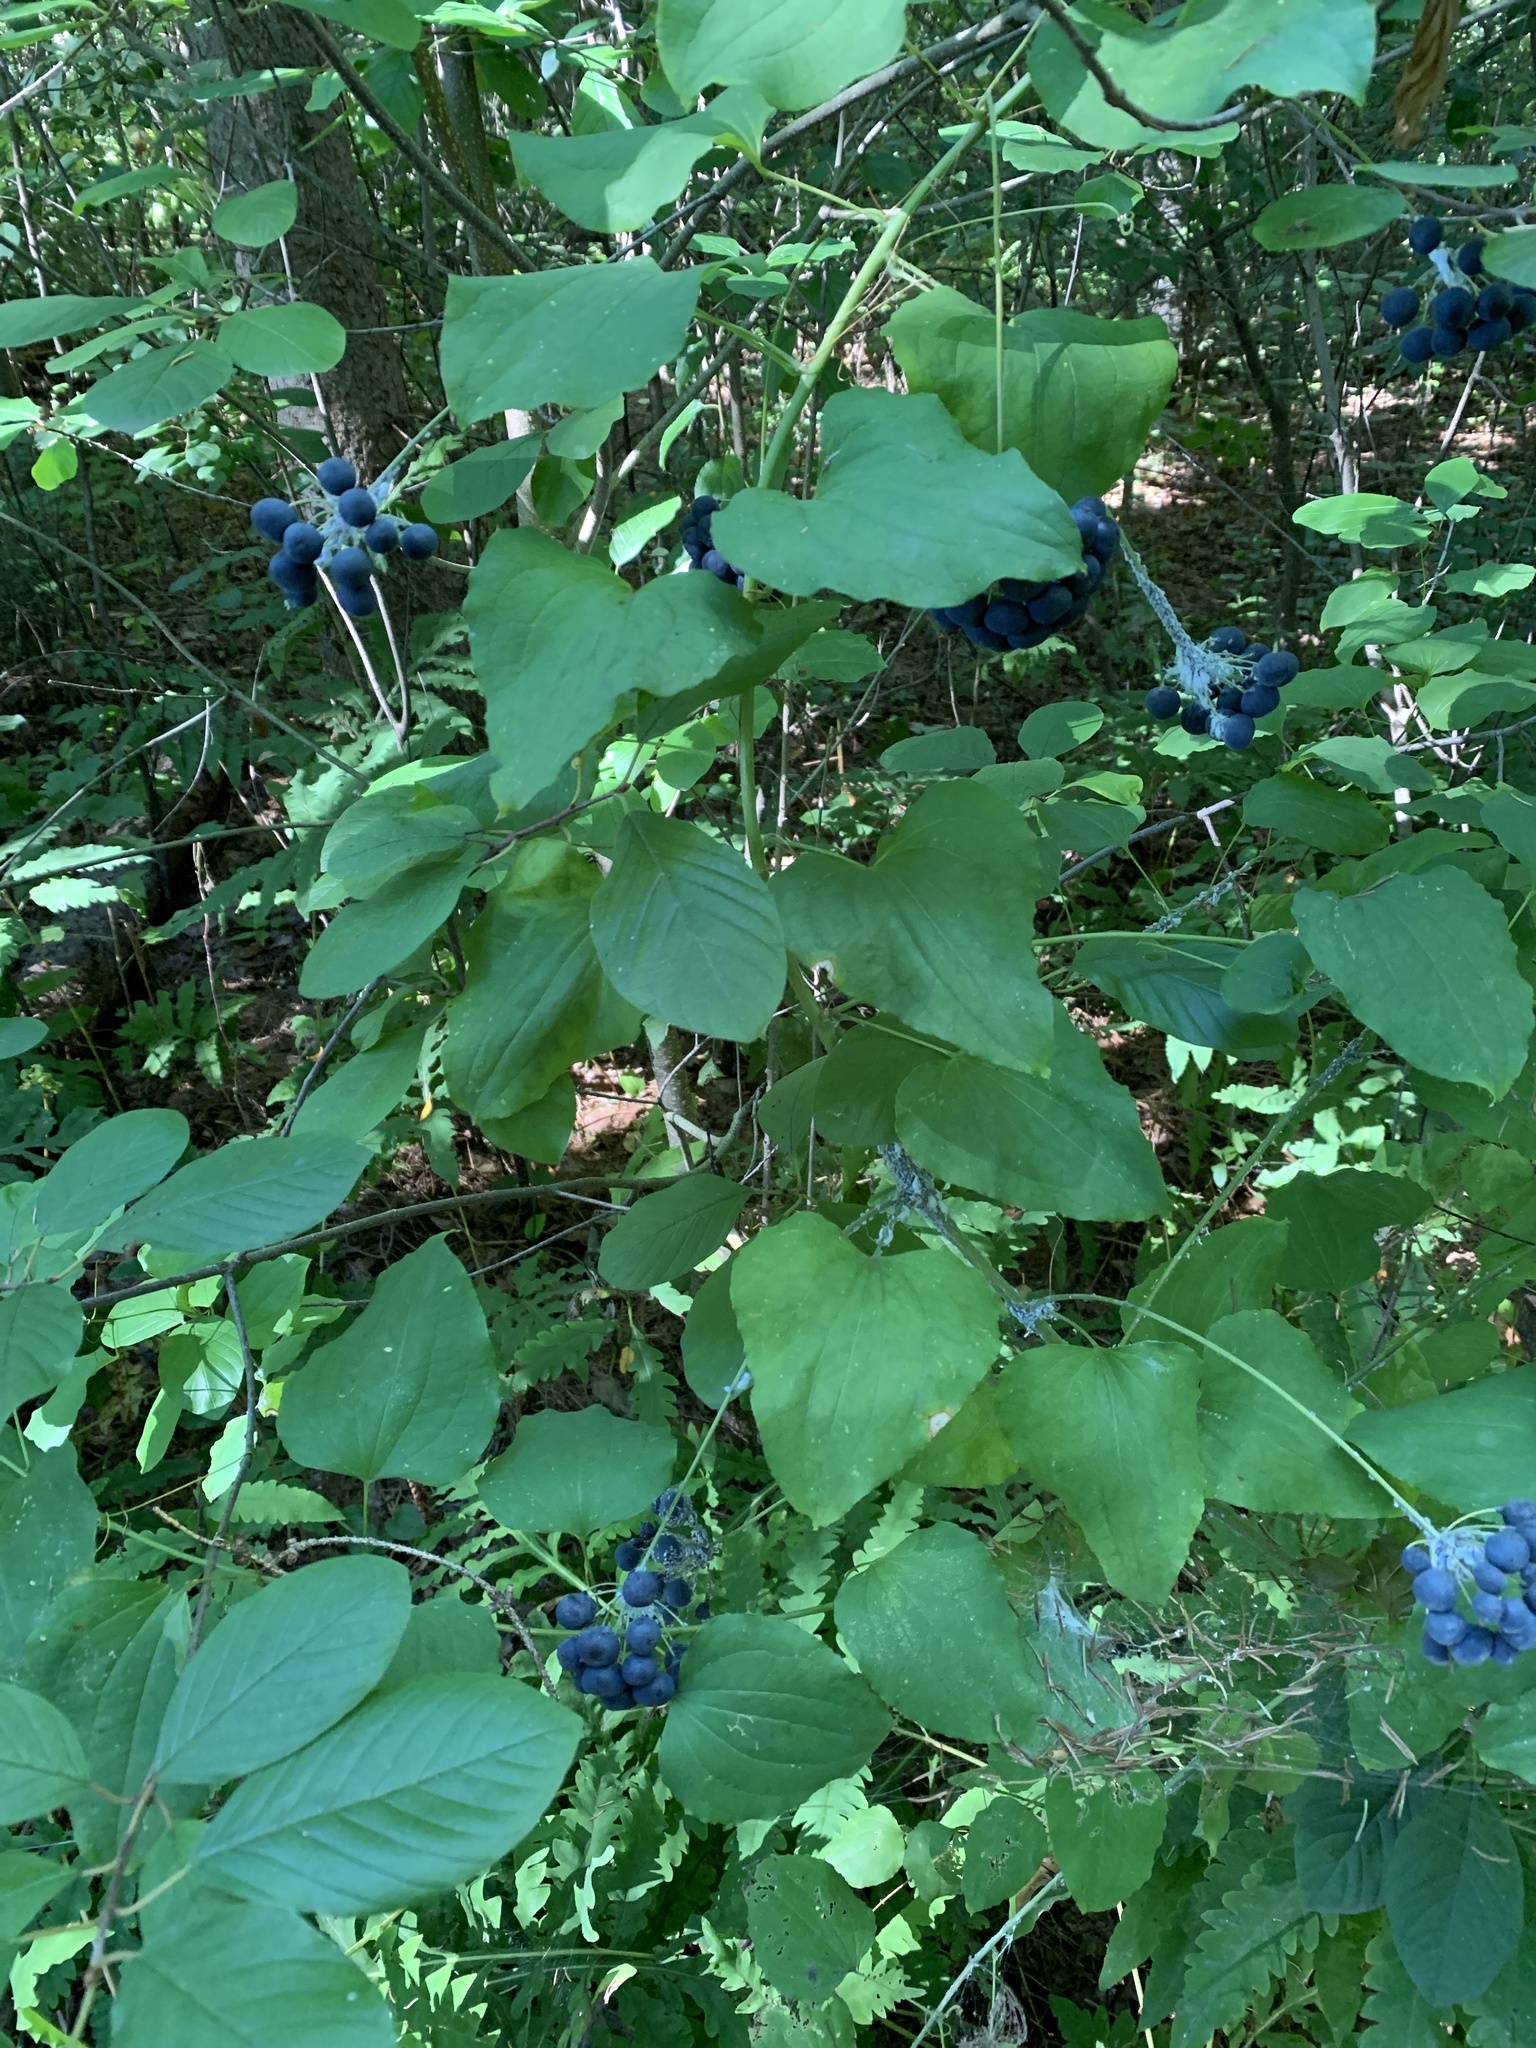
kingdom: Plantae
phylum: Tracheophyta
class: Liliopsida
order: Liliales
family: Smilacaceae
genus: Smilax
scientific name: Smilax herbacea
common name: Jacob's-ladder
